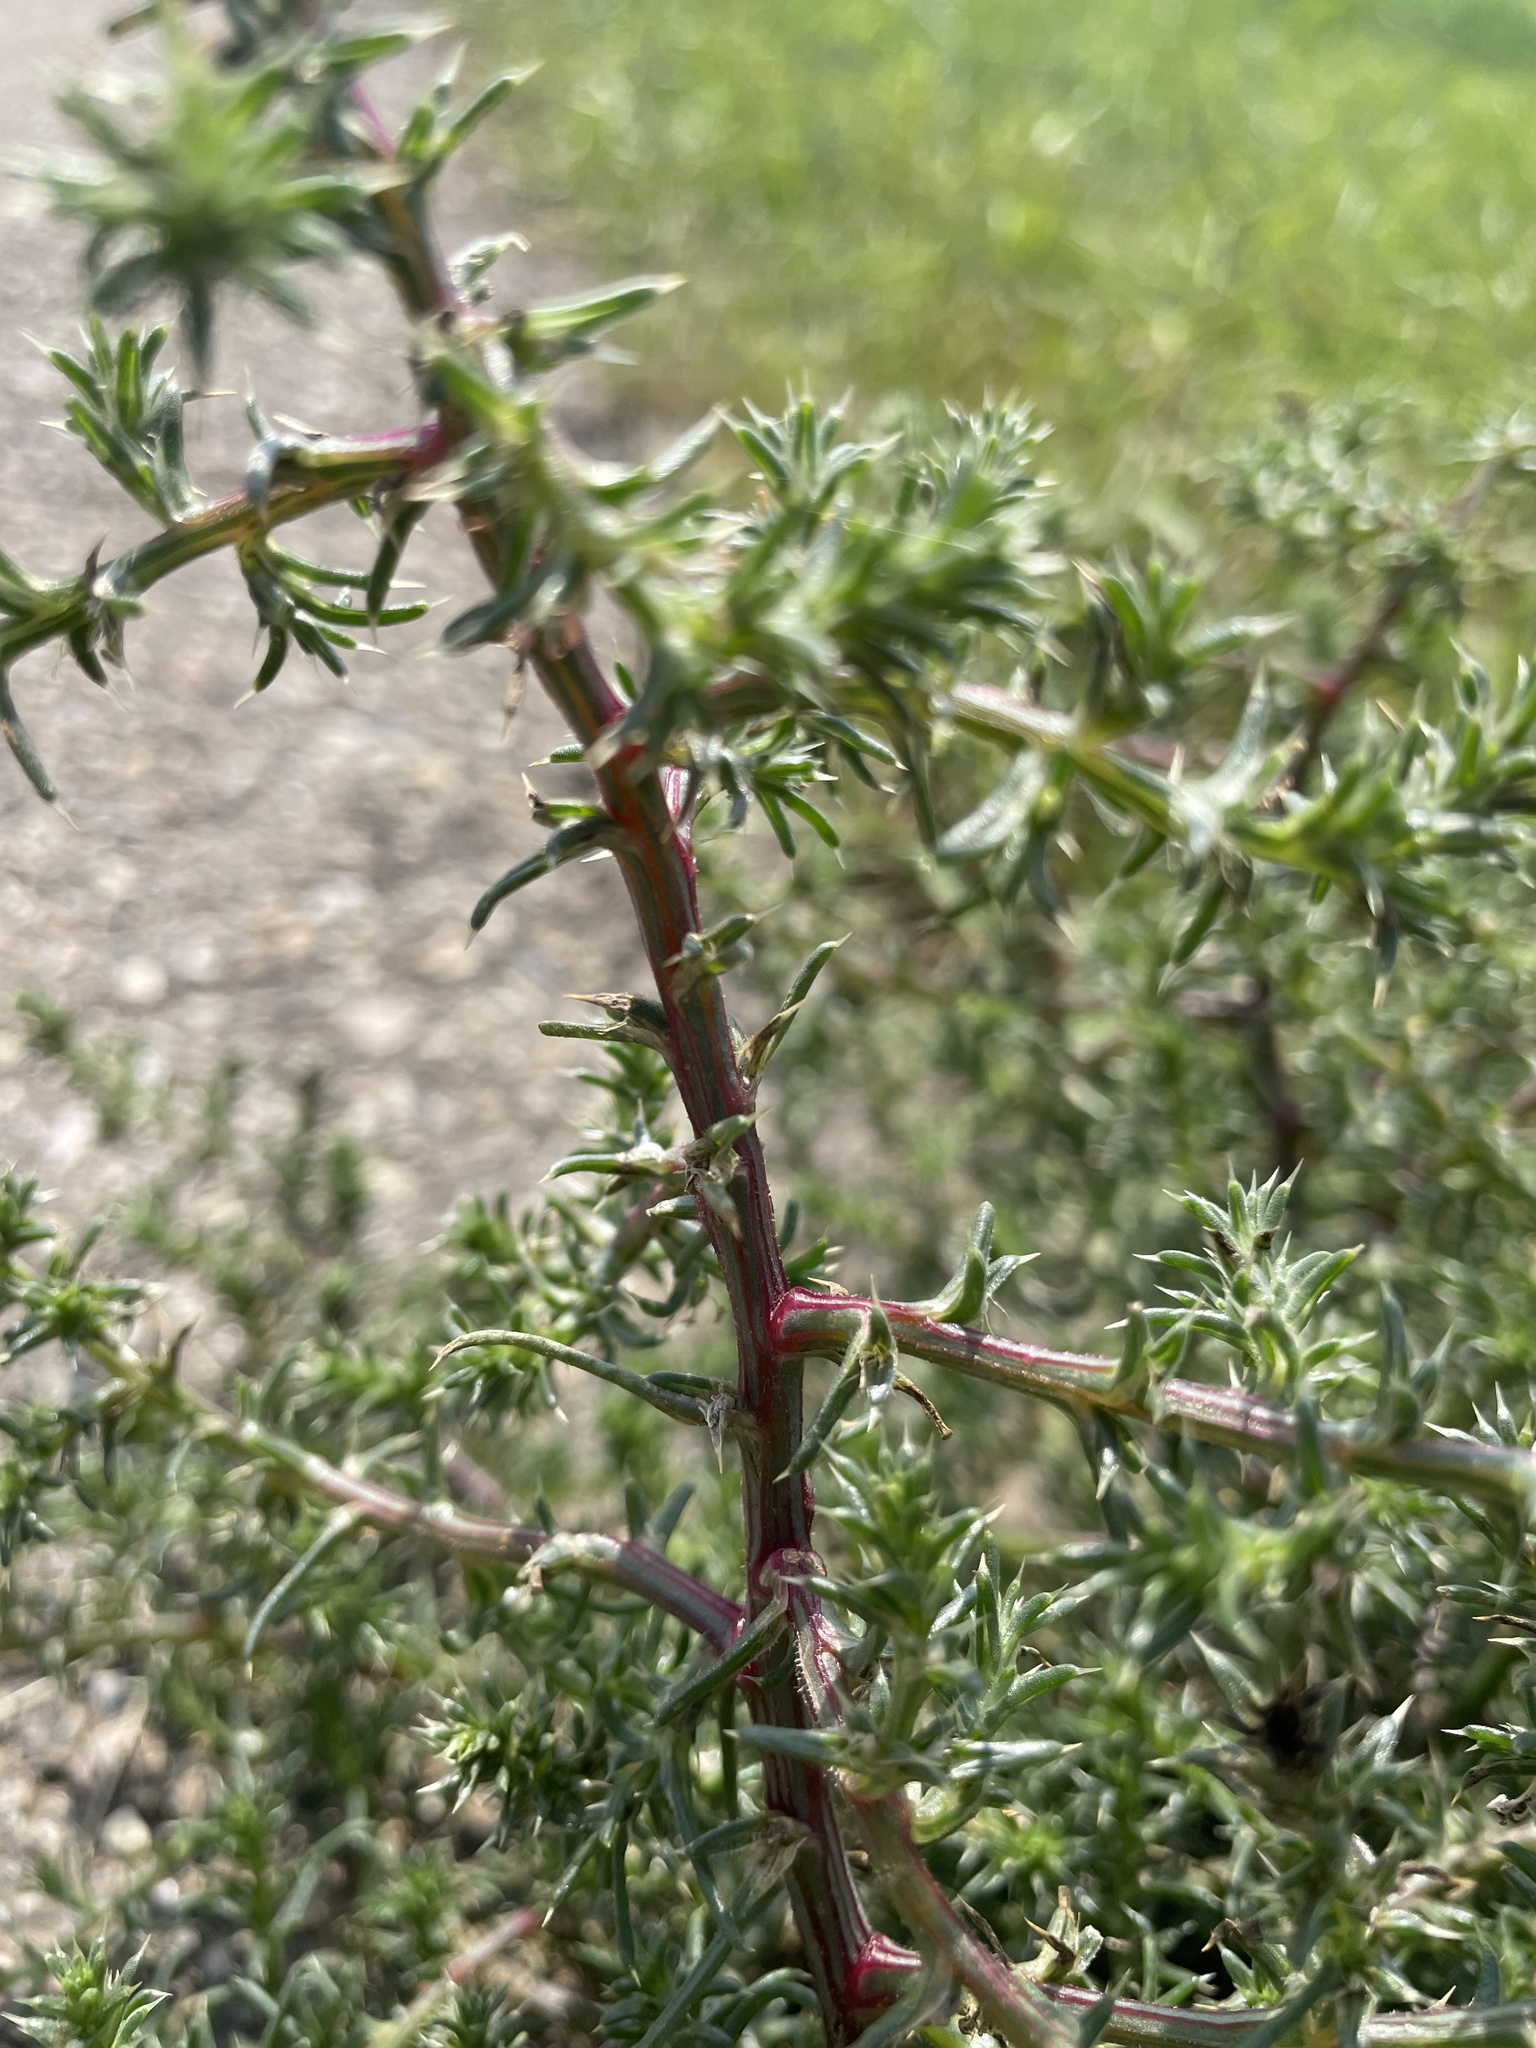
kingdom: Plantae
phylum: Tracheophyta
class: Magnoliopsida
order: Caryophyllales
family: Amaranthaceae
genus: Salsola
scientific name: Salsola tragus
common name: Prickly russian thistle
